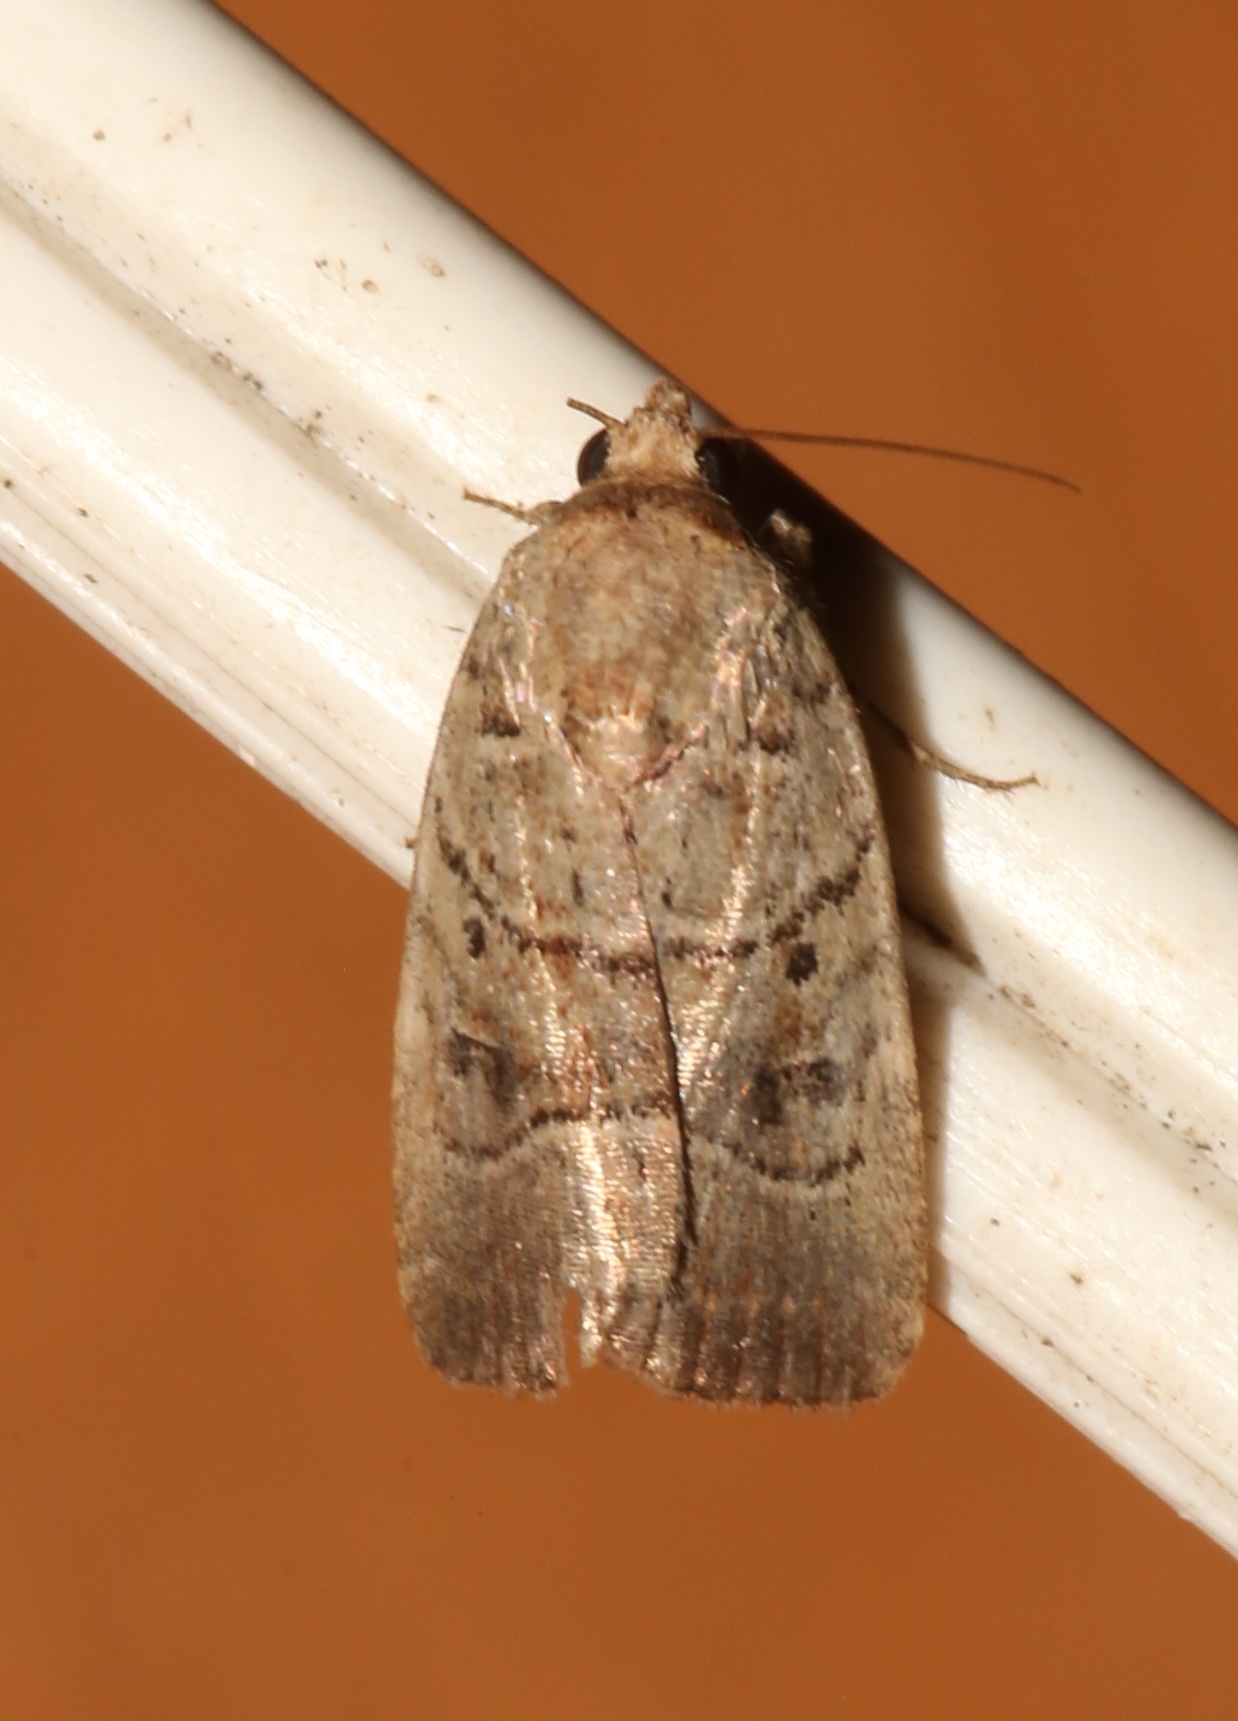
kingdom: Animalia
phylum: Arthropoda
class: Insecta
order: Lepidoptera
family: Noctuidae
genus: Elaphria
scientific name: Elaphria grata
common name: Grateful midget moth
